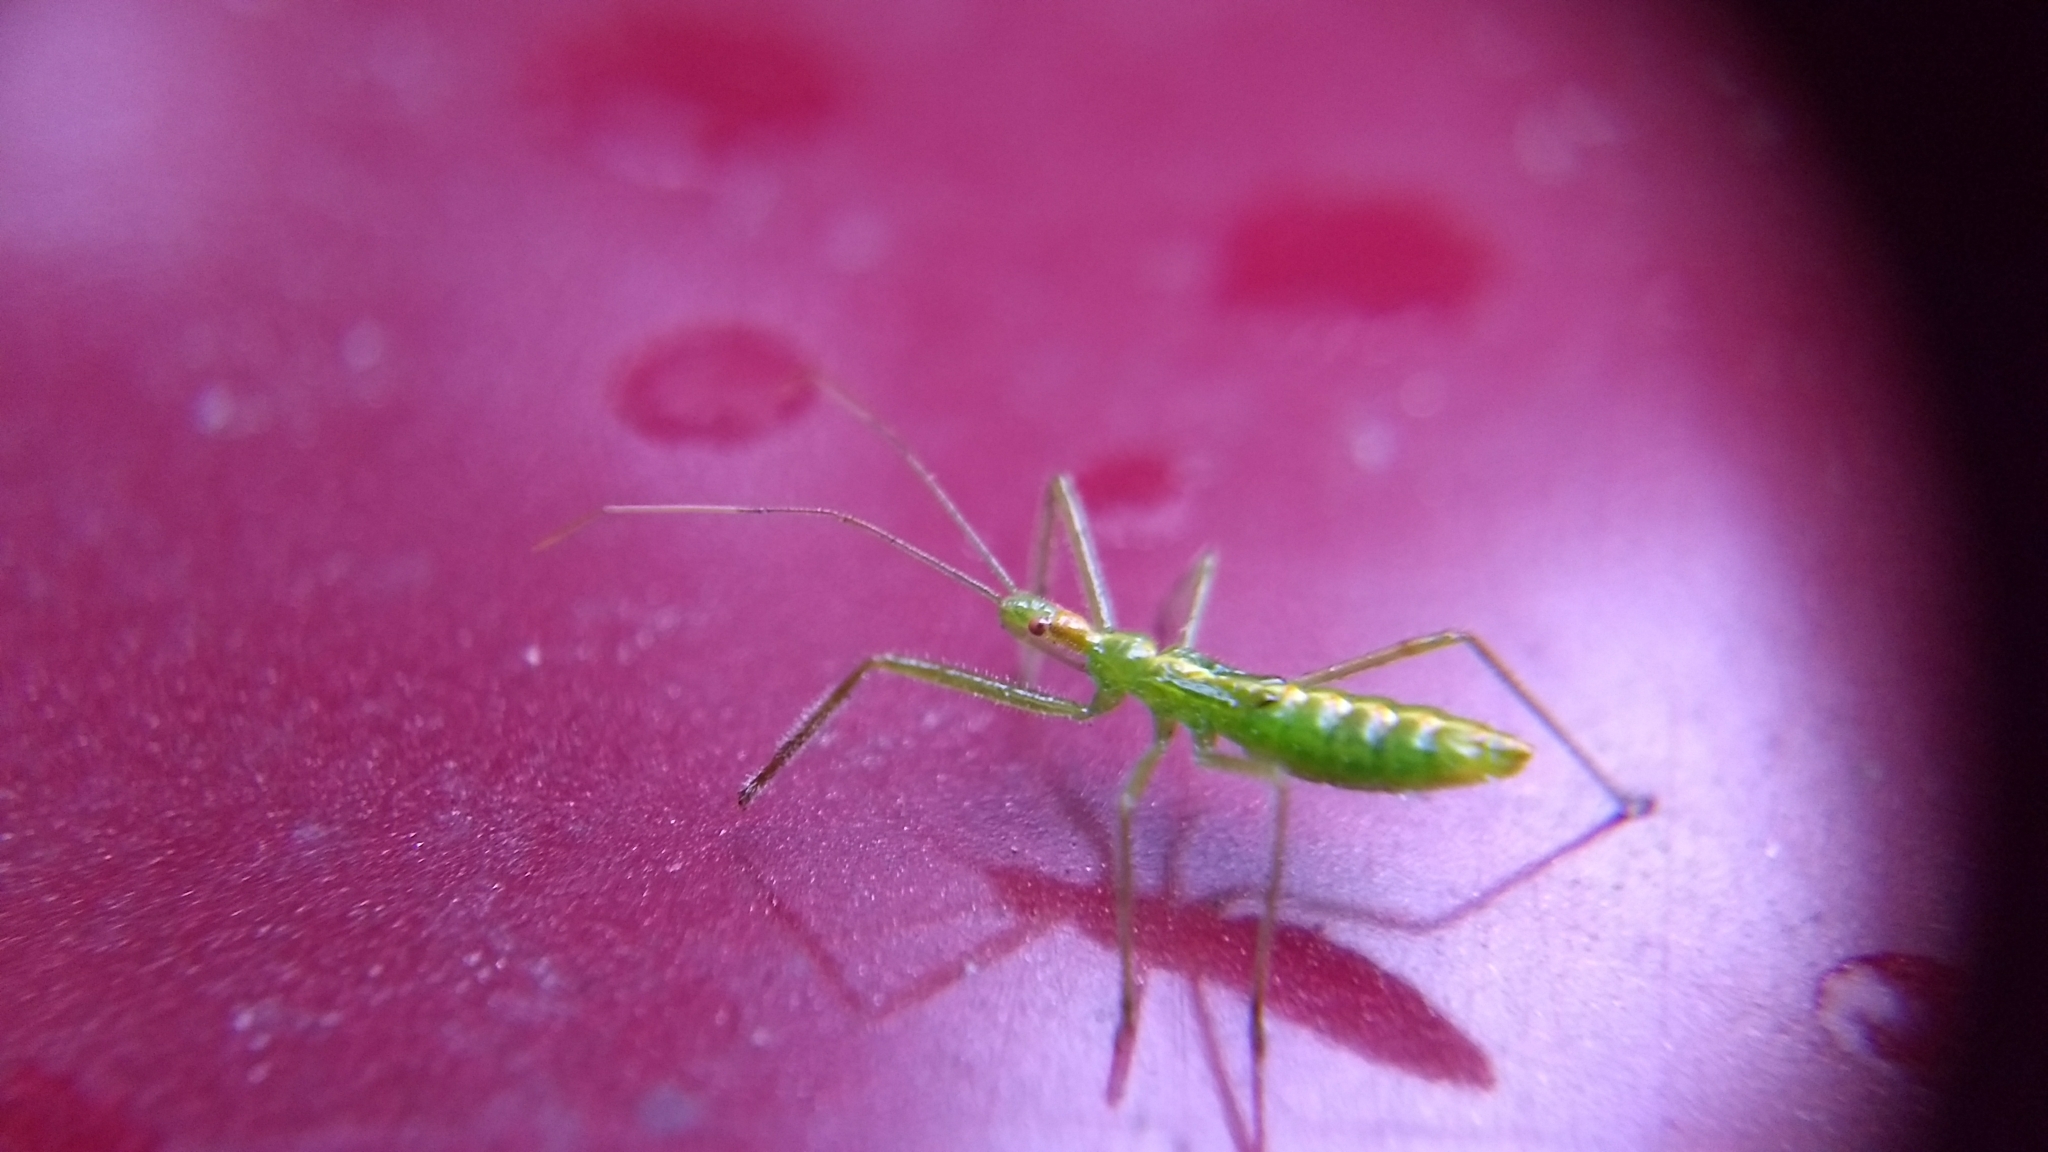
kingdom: Animalia
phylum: Arthropoda
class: Insecta
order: Hemiptera
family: Reduviidae
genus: Zelus
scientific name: Zelus luridus
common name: Pale green assassin bug
